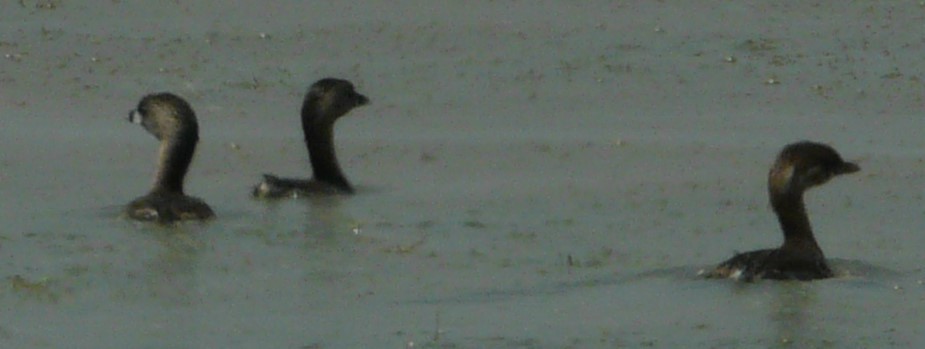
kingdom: Animalia
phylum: Chordata
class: Aves
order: Podicipediformes
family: Podicipedidae
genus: Podilymbus
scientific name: Podilymbus podiceps
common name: Pied-billed grebe
